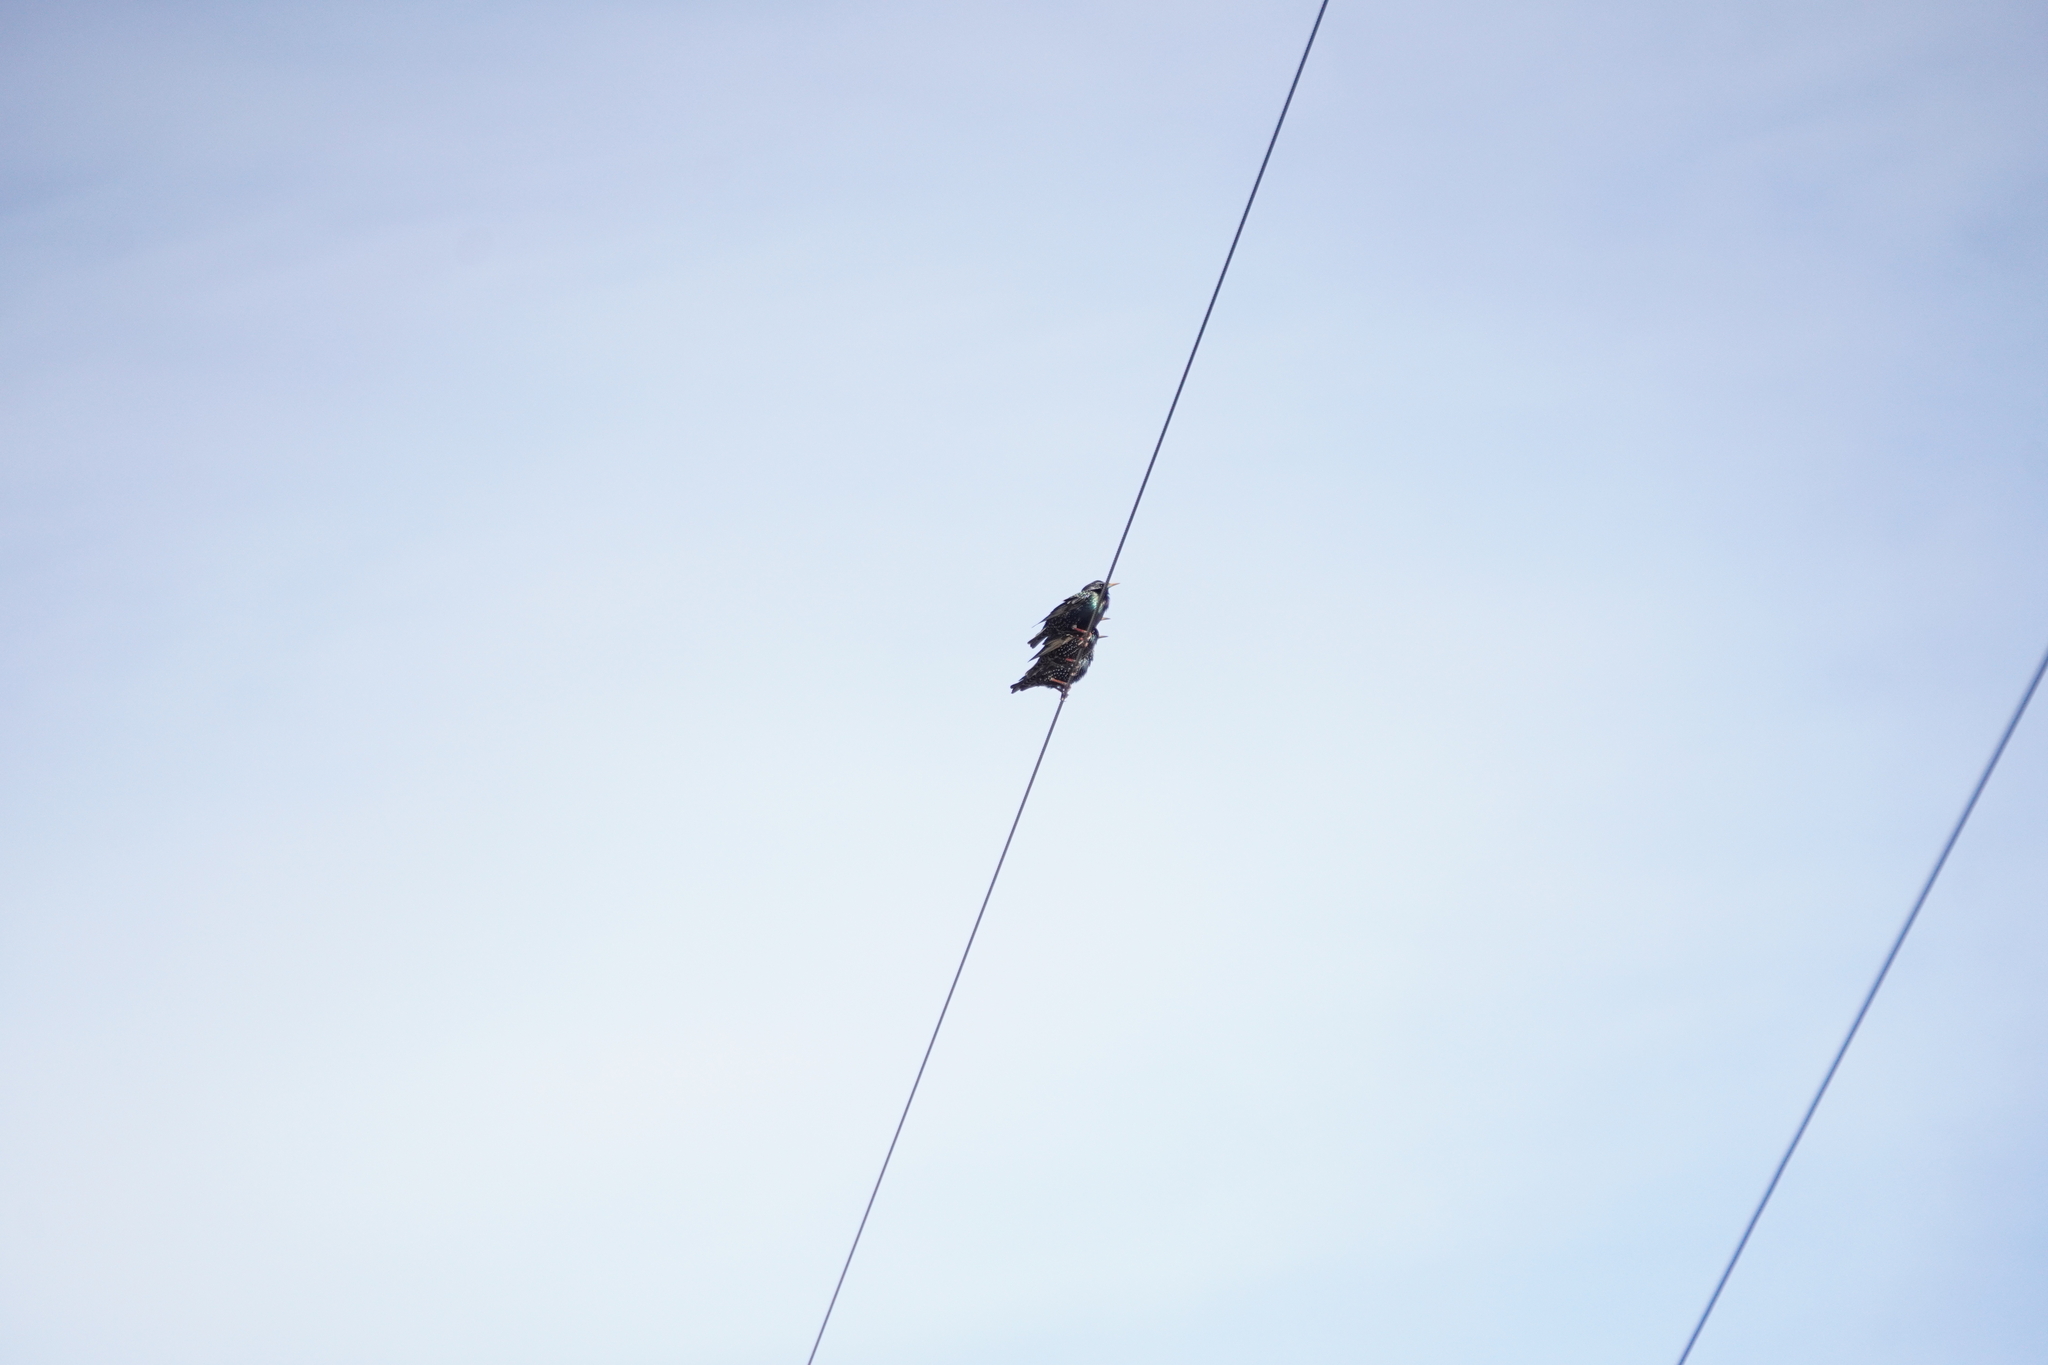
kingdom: Animalia
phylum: Chordata
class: Aves
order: Passeriformes
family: Sturnidae
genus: Sturnus
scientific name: Sturnus vulgaris
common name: Common starling
